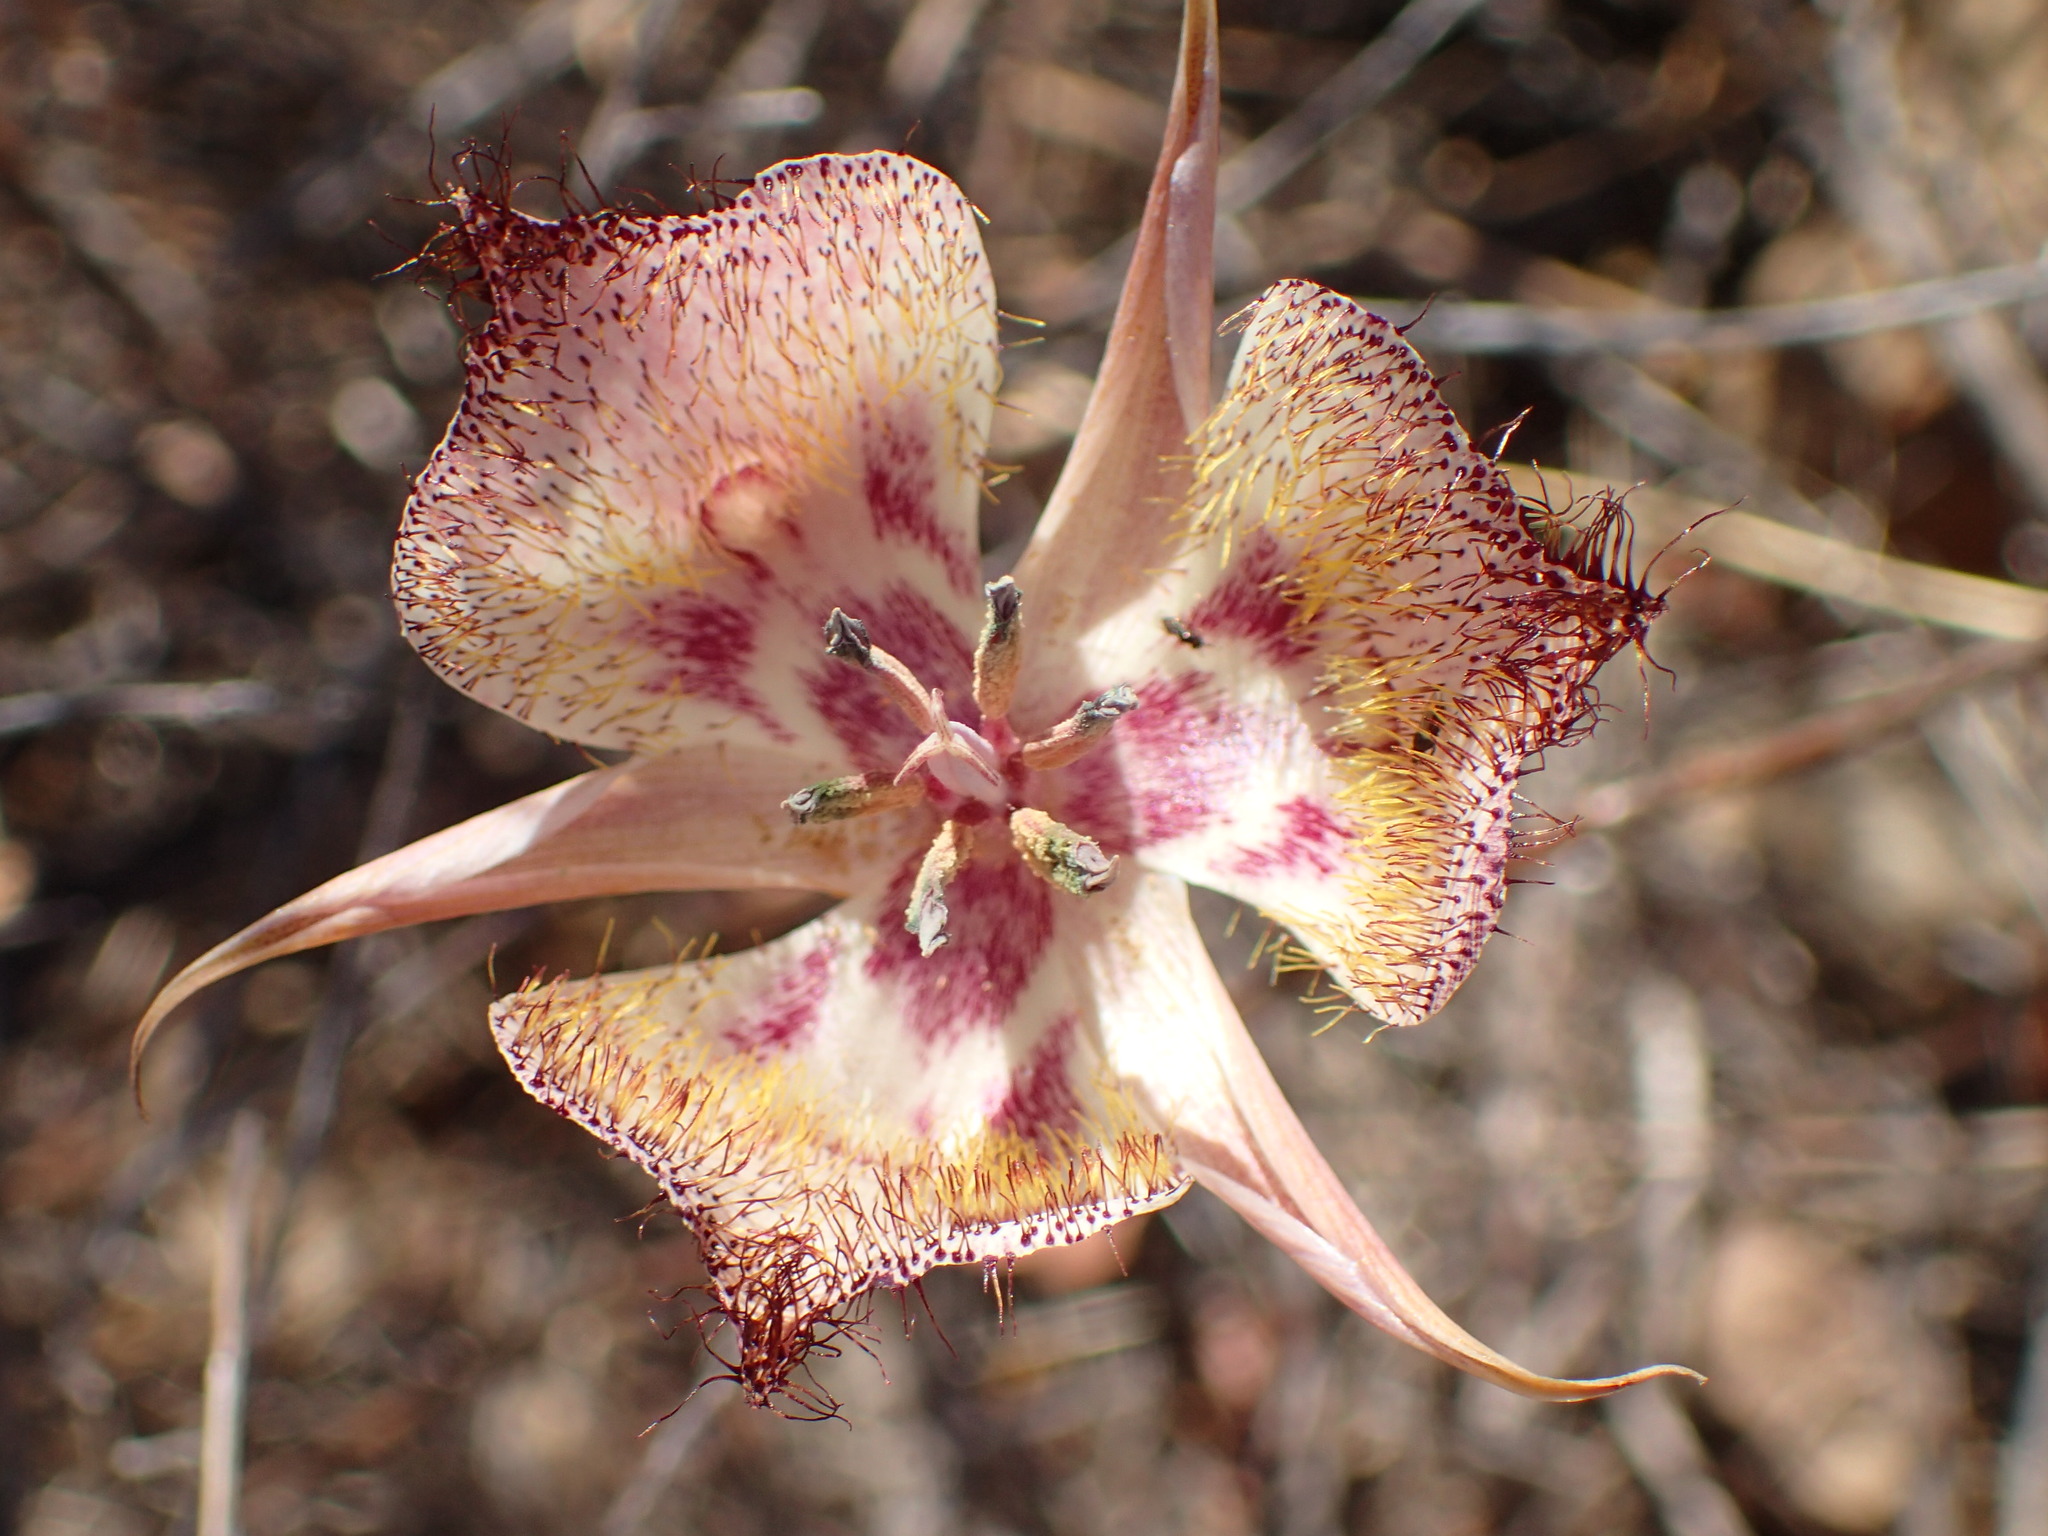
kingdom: Plantae
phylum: Tracheophyta
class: Liliopsida
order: Liliales
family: Liliaceae
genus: Calochortus
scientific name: Calochortus fimbriatus
